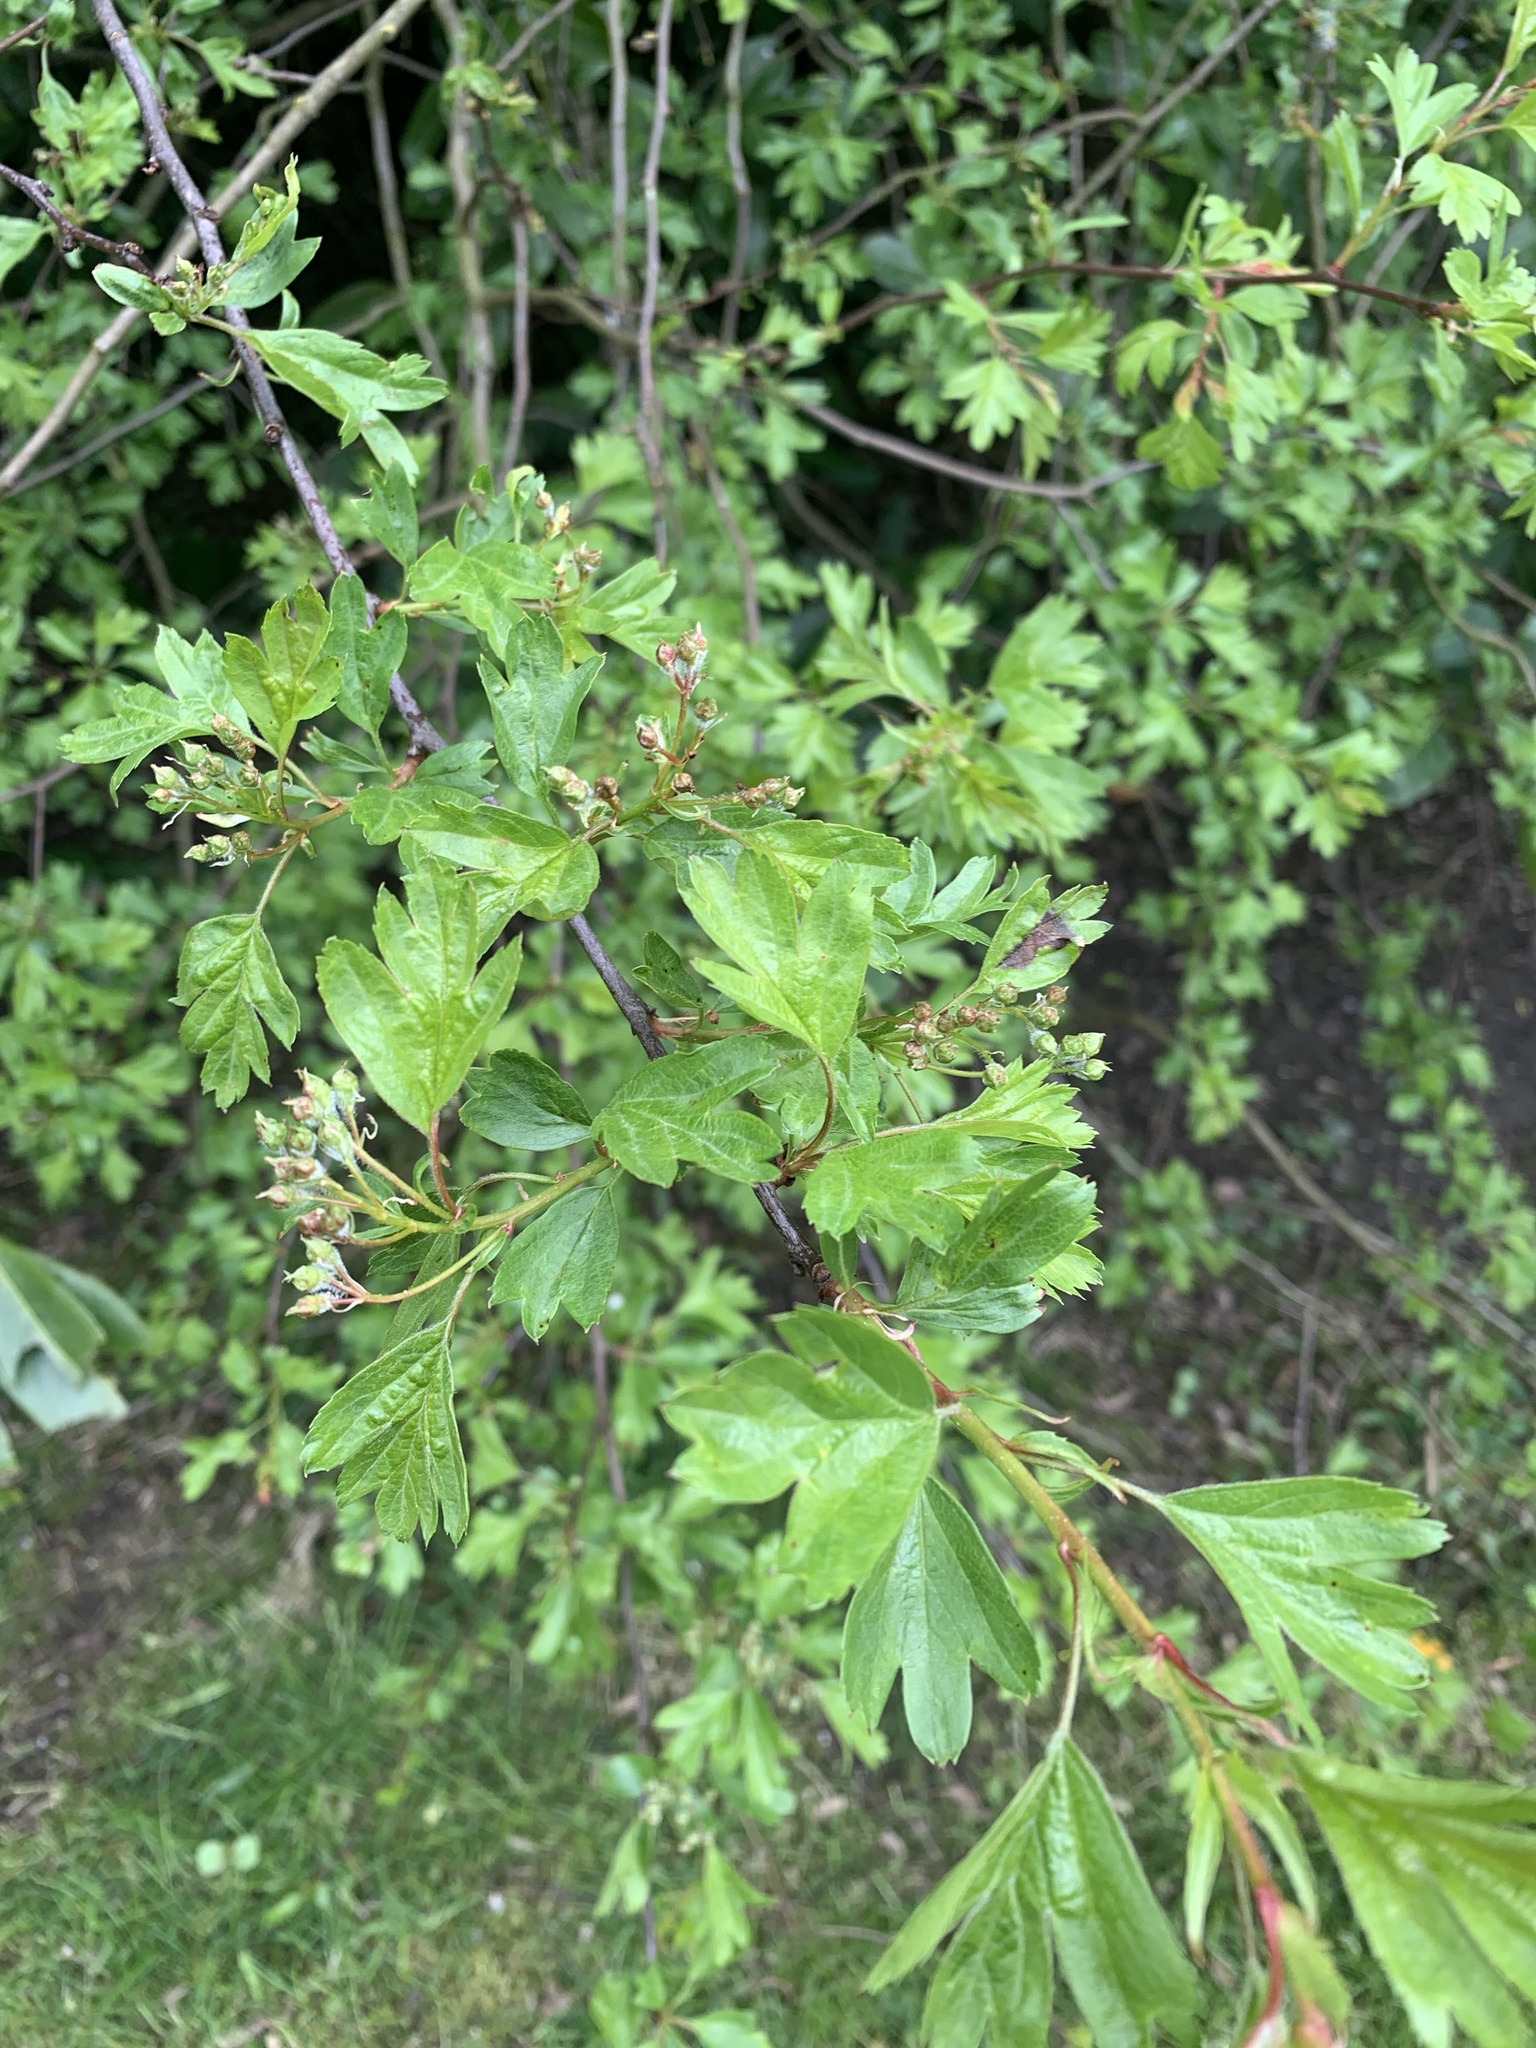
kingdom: Plantae
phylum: Tracheophyta
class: Magnoliopsida
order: Rosales
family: Rosaceae
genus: Crataegus
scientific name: Crataegus monogyna
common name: Hawthorn
